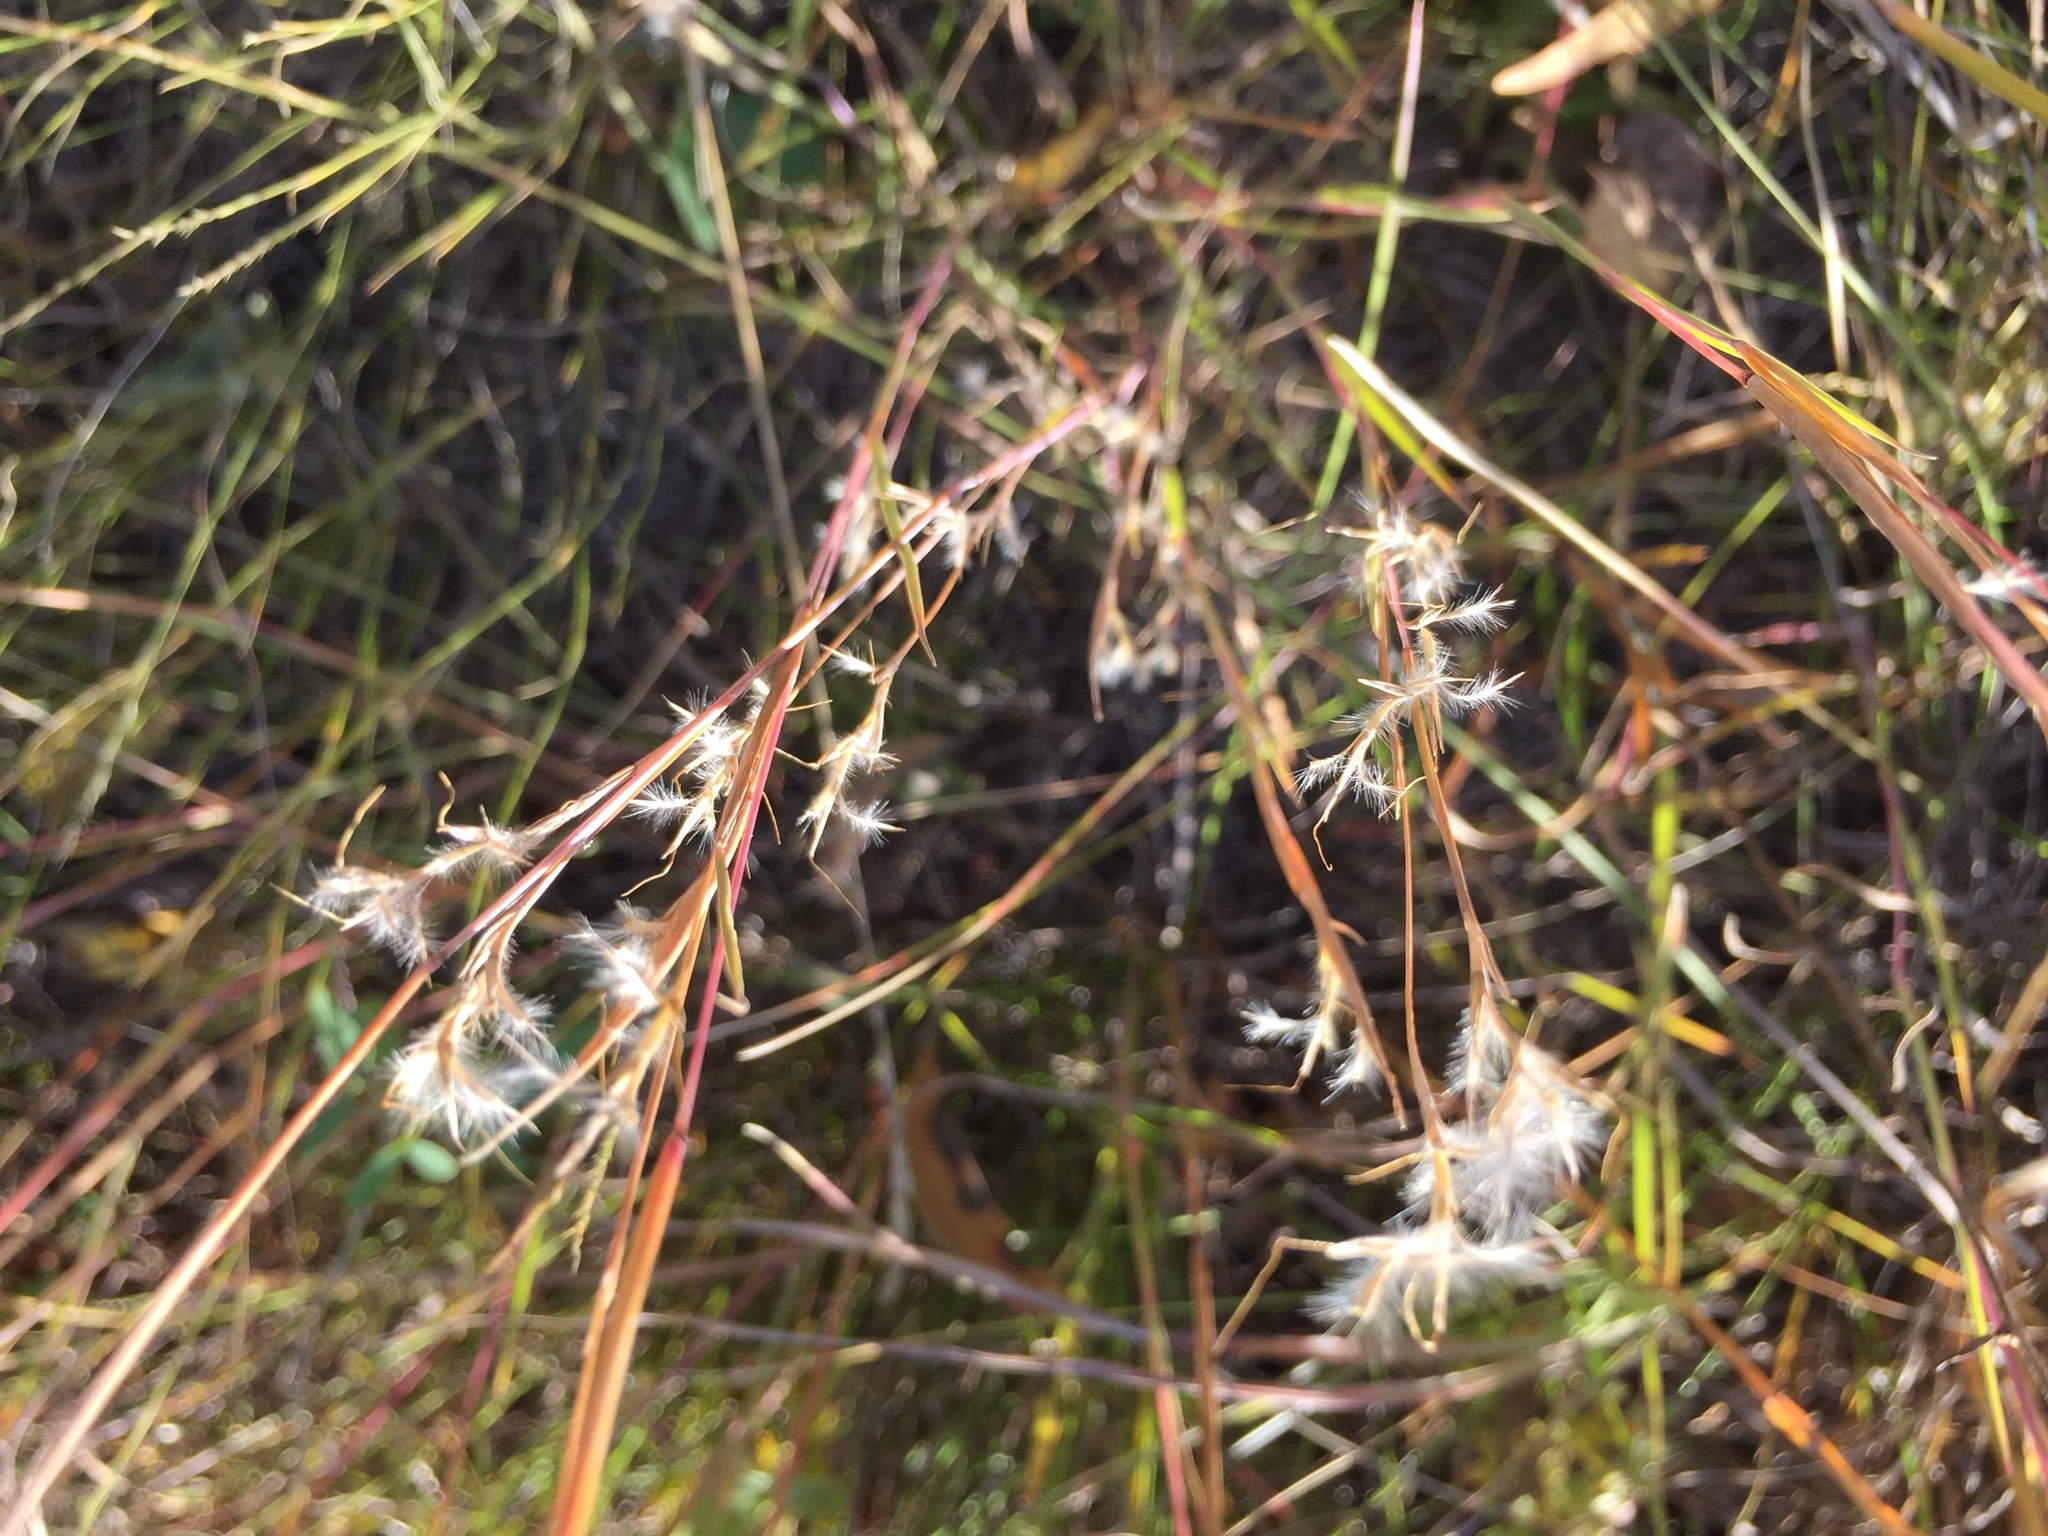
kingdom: Plantae
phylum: Tracheophyta
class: Liliopsida
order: Poales
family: Poaceae
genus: Schizachyrium
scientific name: Schizachyrium scoparium
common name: Little bluestem
